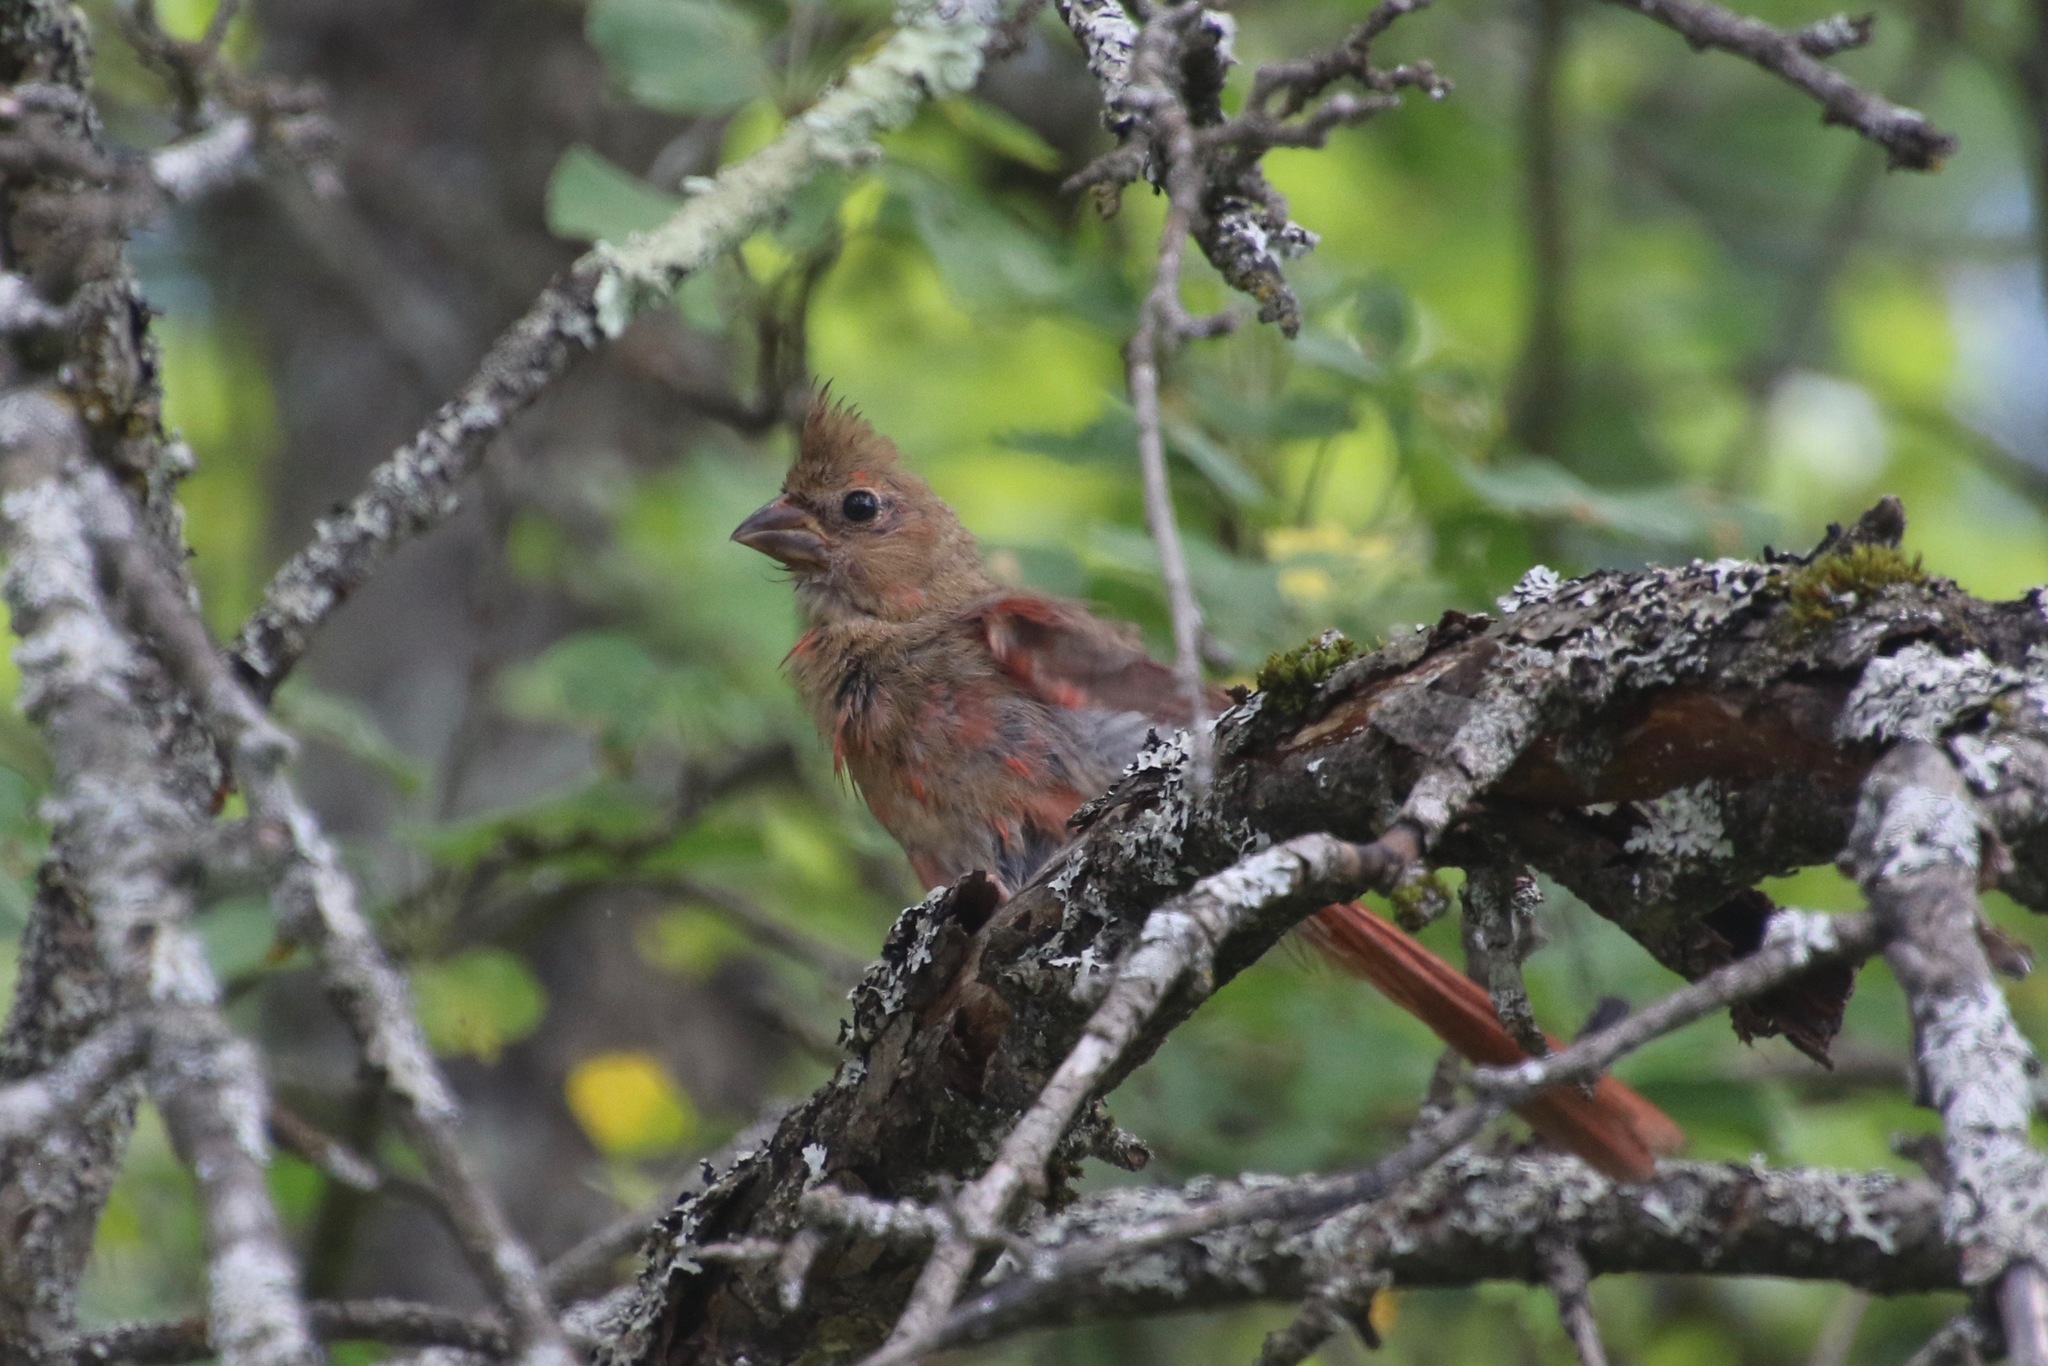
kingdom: Animalia
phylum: Chordata
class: Aves
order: Passeriformes
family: Cardinalidae
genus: Cardinalis
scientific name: Cardinalis cardinalis
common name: Northern cardinal
